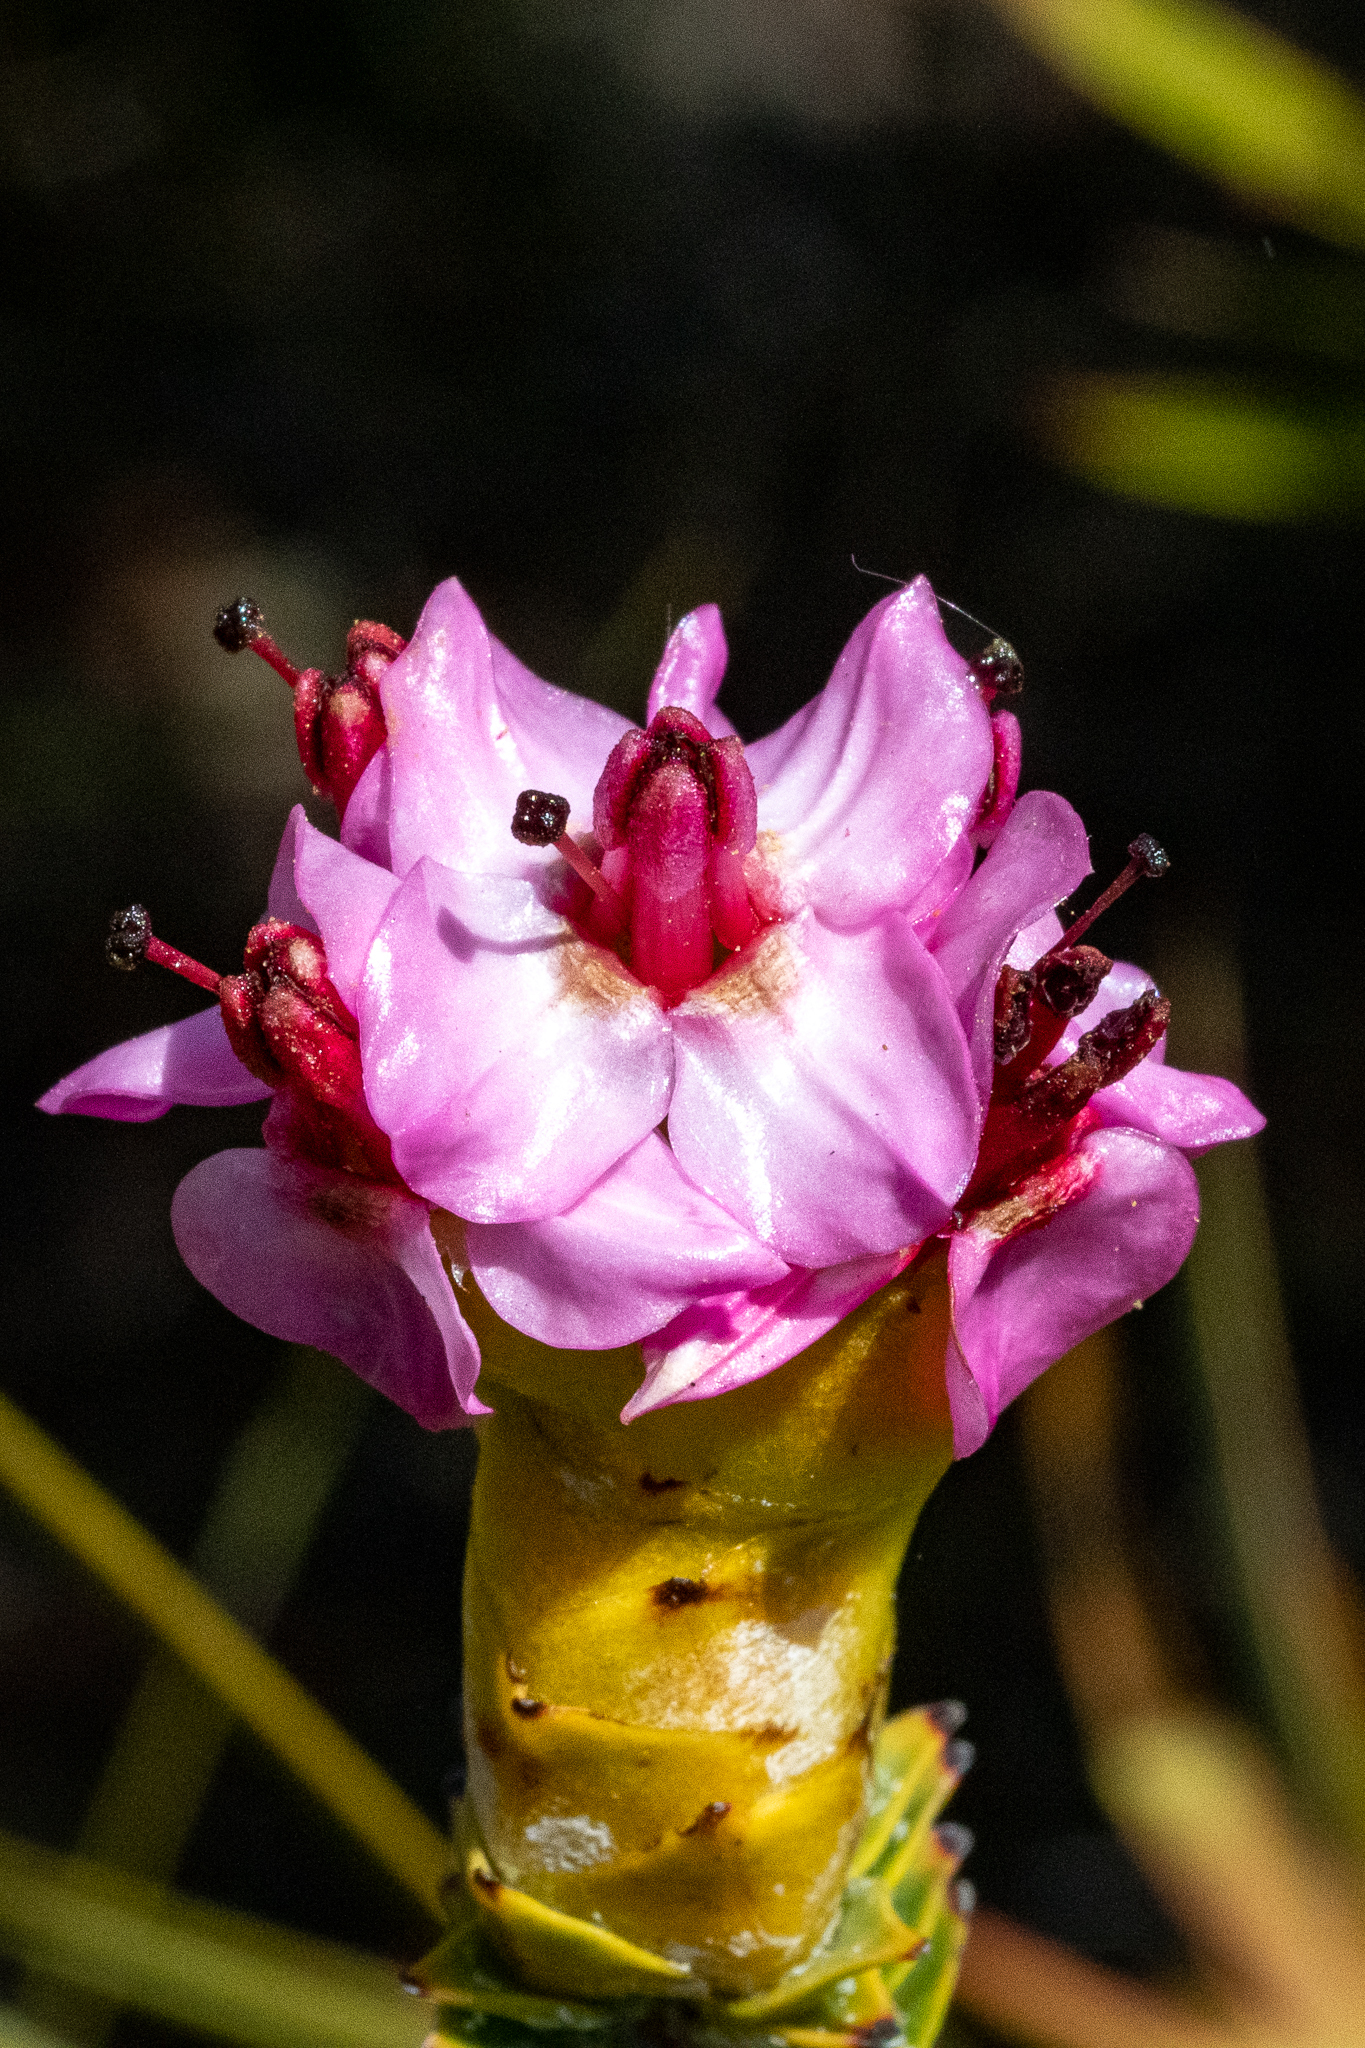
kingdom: Plantae
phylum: Tracheophyta
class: Magnoliopsida
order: Myrtales
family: Penaeaceae
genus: Saltera
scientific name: Saltera sarcocolla
